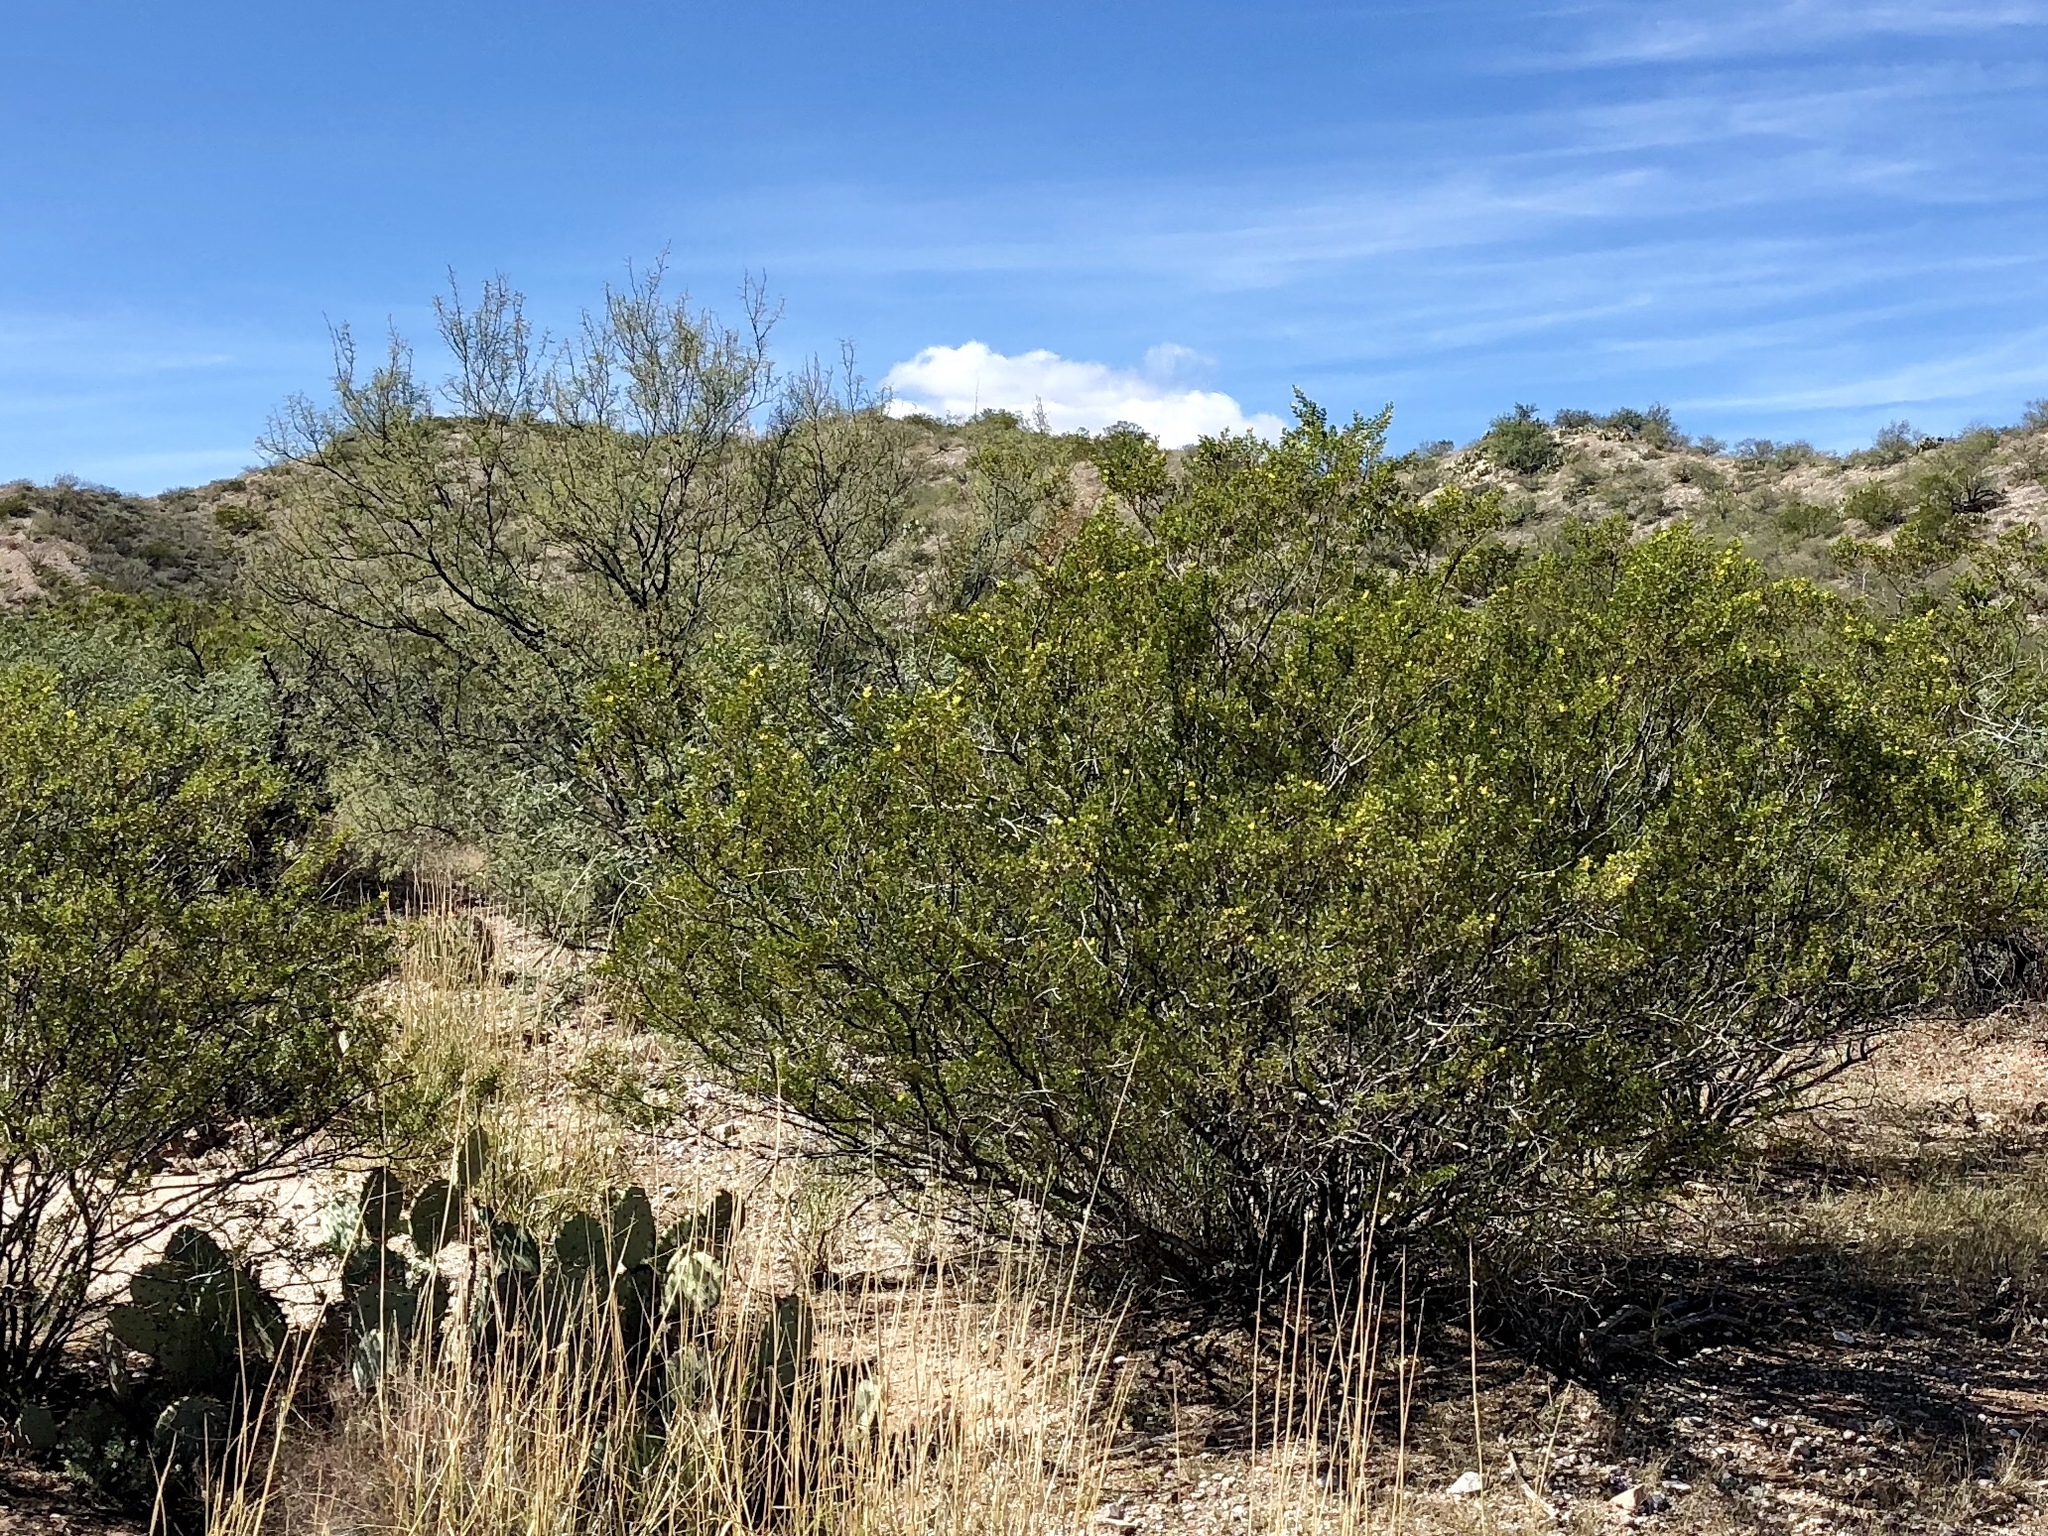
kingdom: Plantae
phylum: Tracheophyta
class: Magnoliopsida
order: Zygophyllales
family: Zygophyllaceae
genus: Larrea
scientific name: Larrea tridentata
